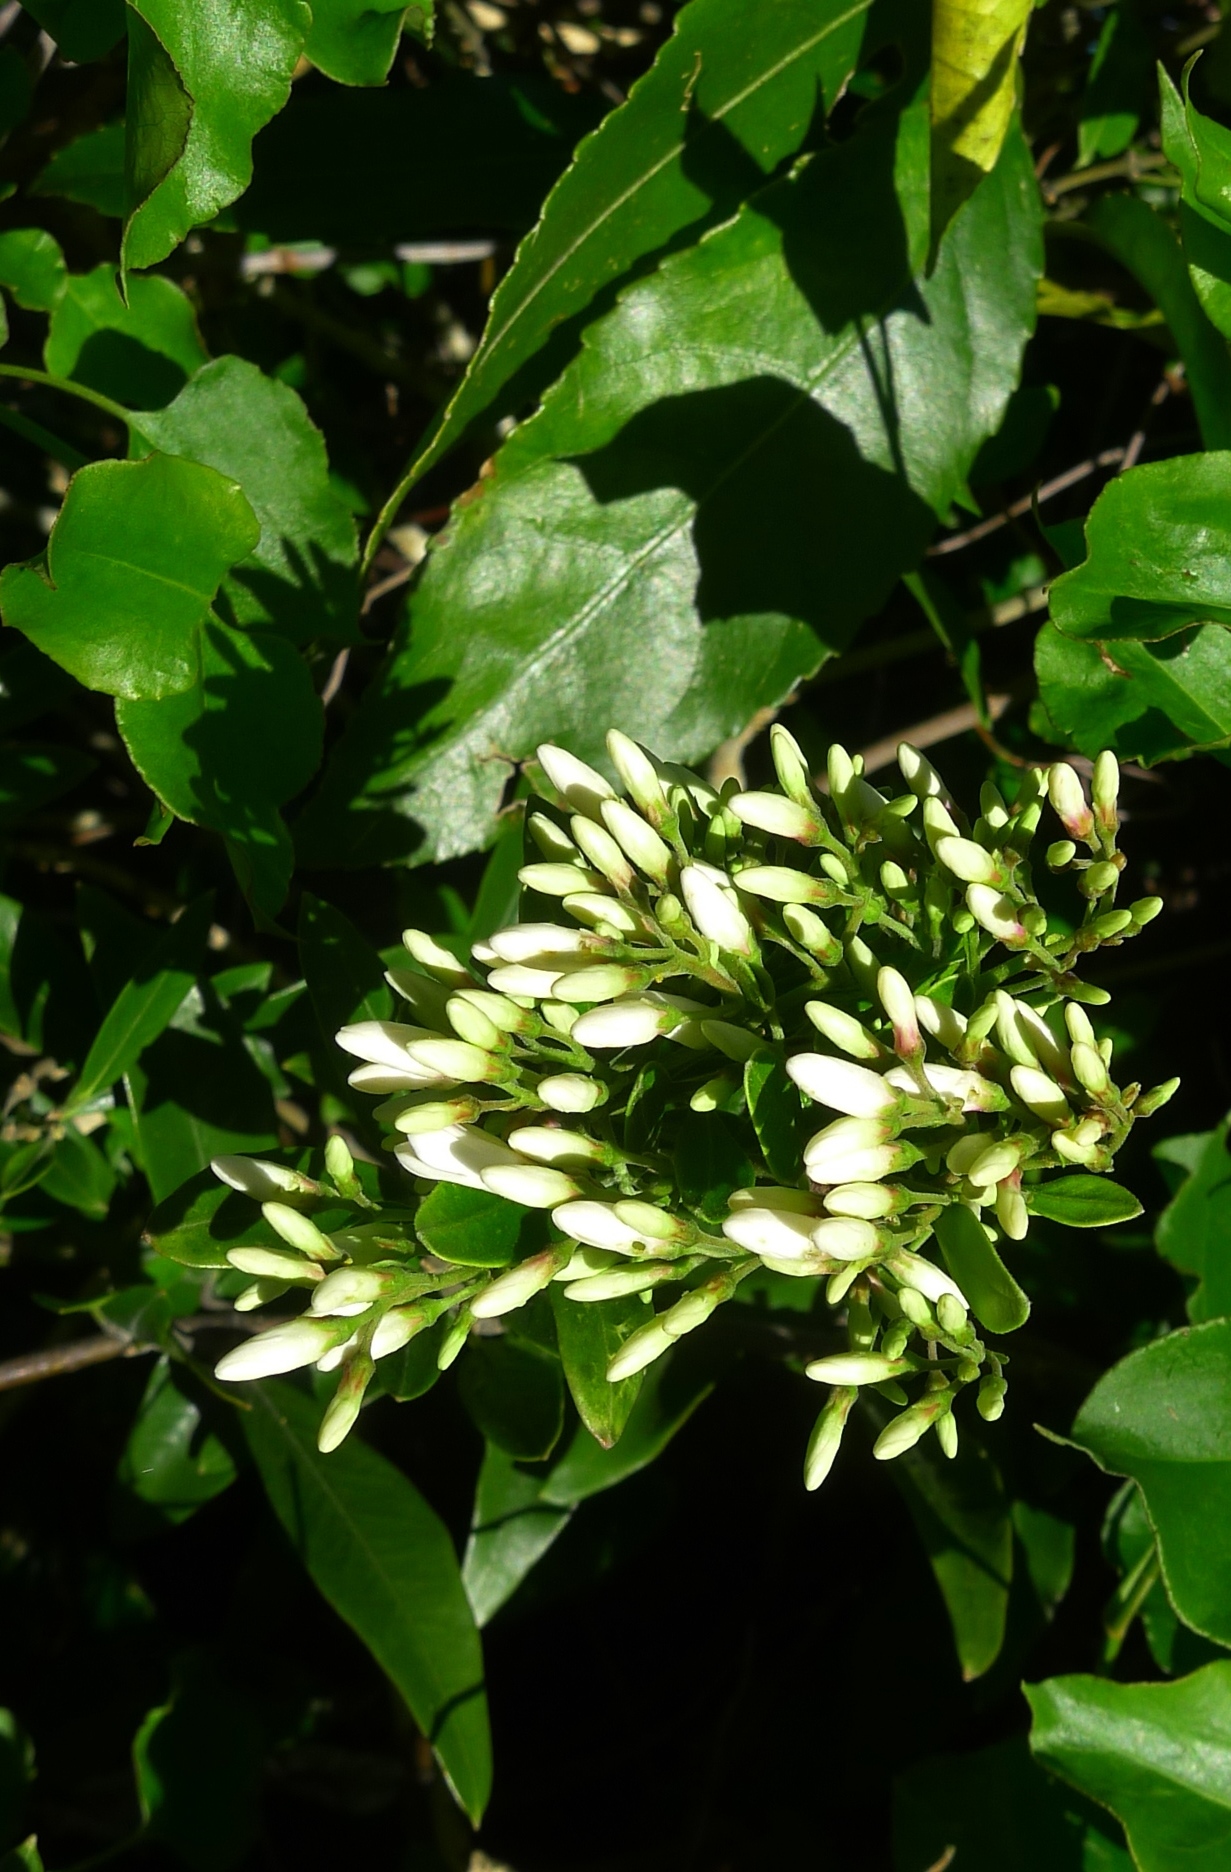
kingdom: Plantae
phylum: Tracheophyta
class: Magnoliopsida
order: Gentianales
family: Apocynaceae
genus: Parsonsia
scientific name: Parsonsia heterophylla
